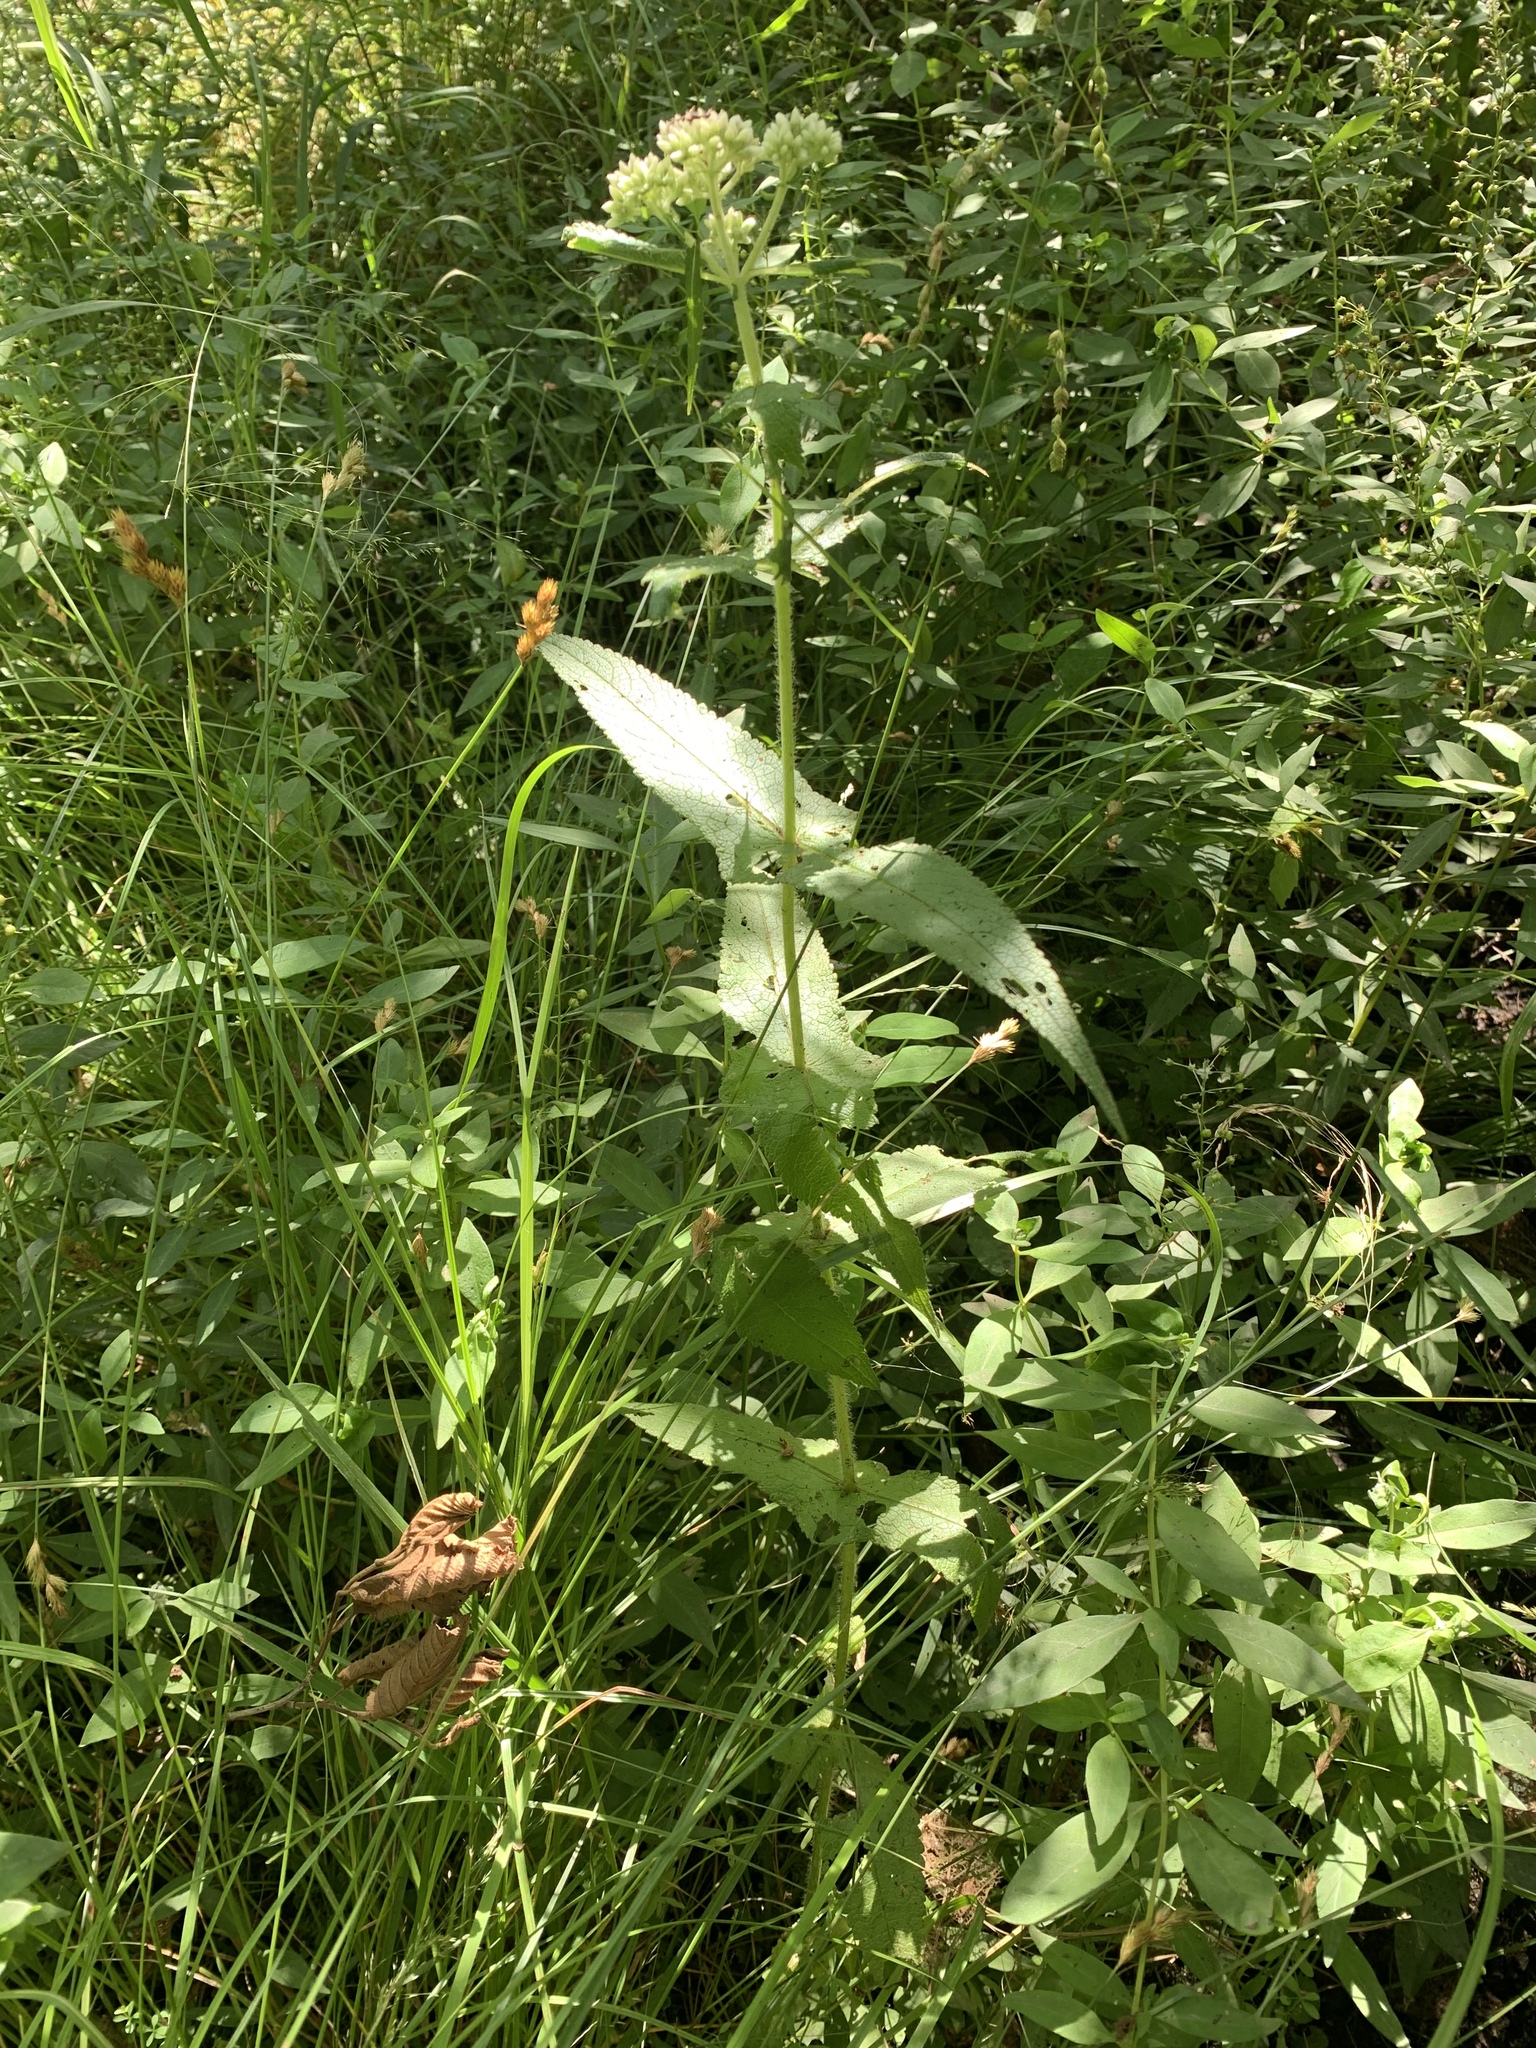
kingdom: Plantae
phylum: Tracheophyta
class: Magnoliopsida
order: Asterales
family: Asteraceae
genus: Eupatorium
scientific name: Eupatorium perfoliatum
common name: Boneset
